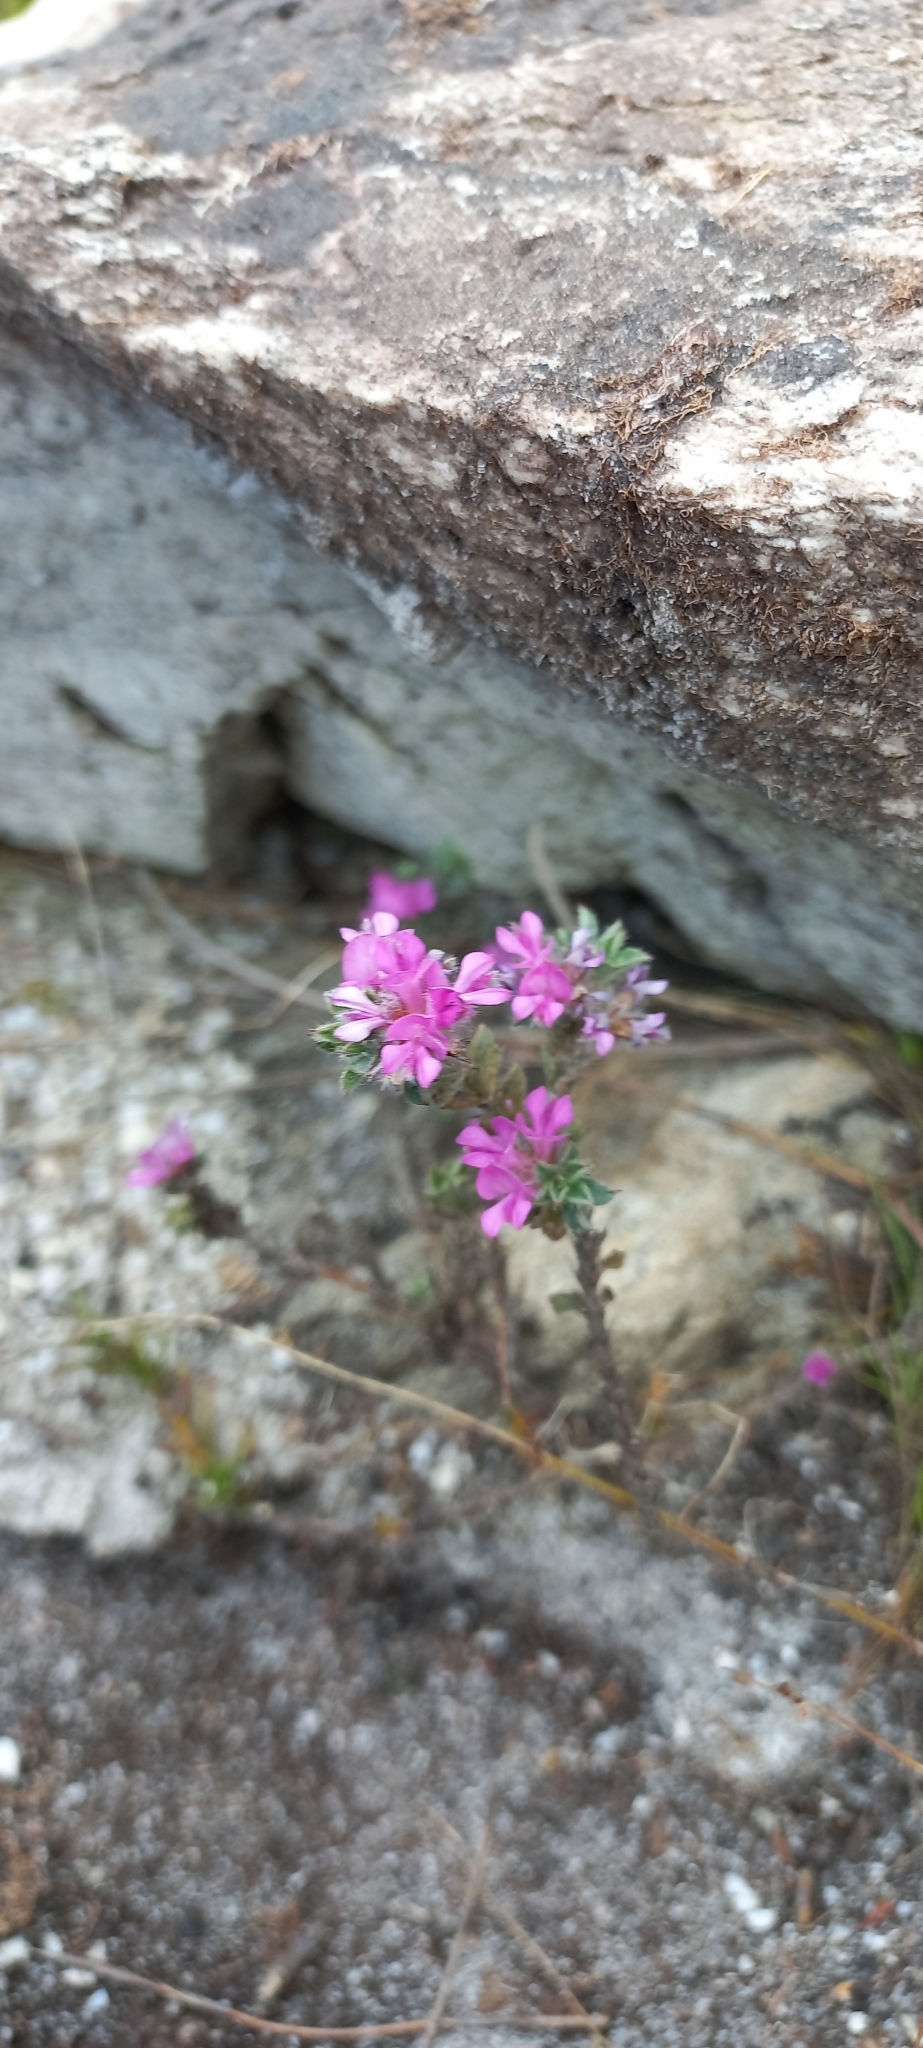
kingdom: Plantae
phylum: Tracheophyta
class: Magnoliopsida
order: Fabales
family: Fabaceae
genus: Indigofera
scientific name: Indigofera glomerata
